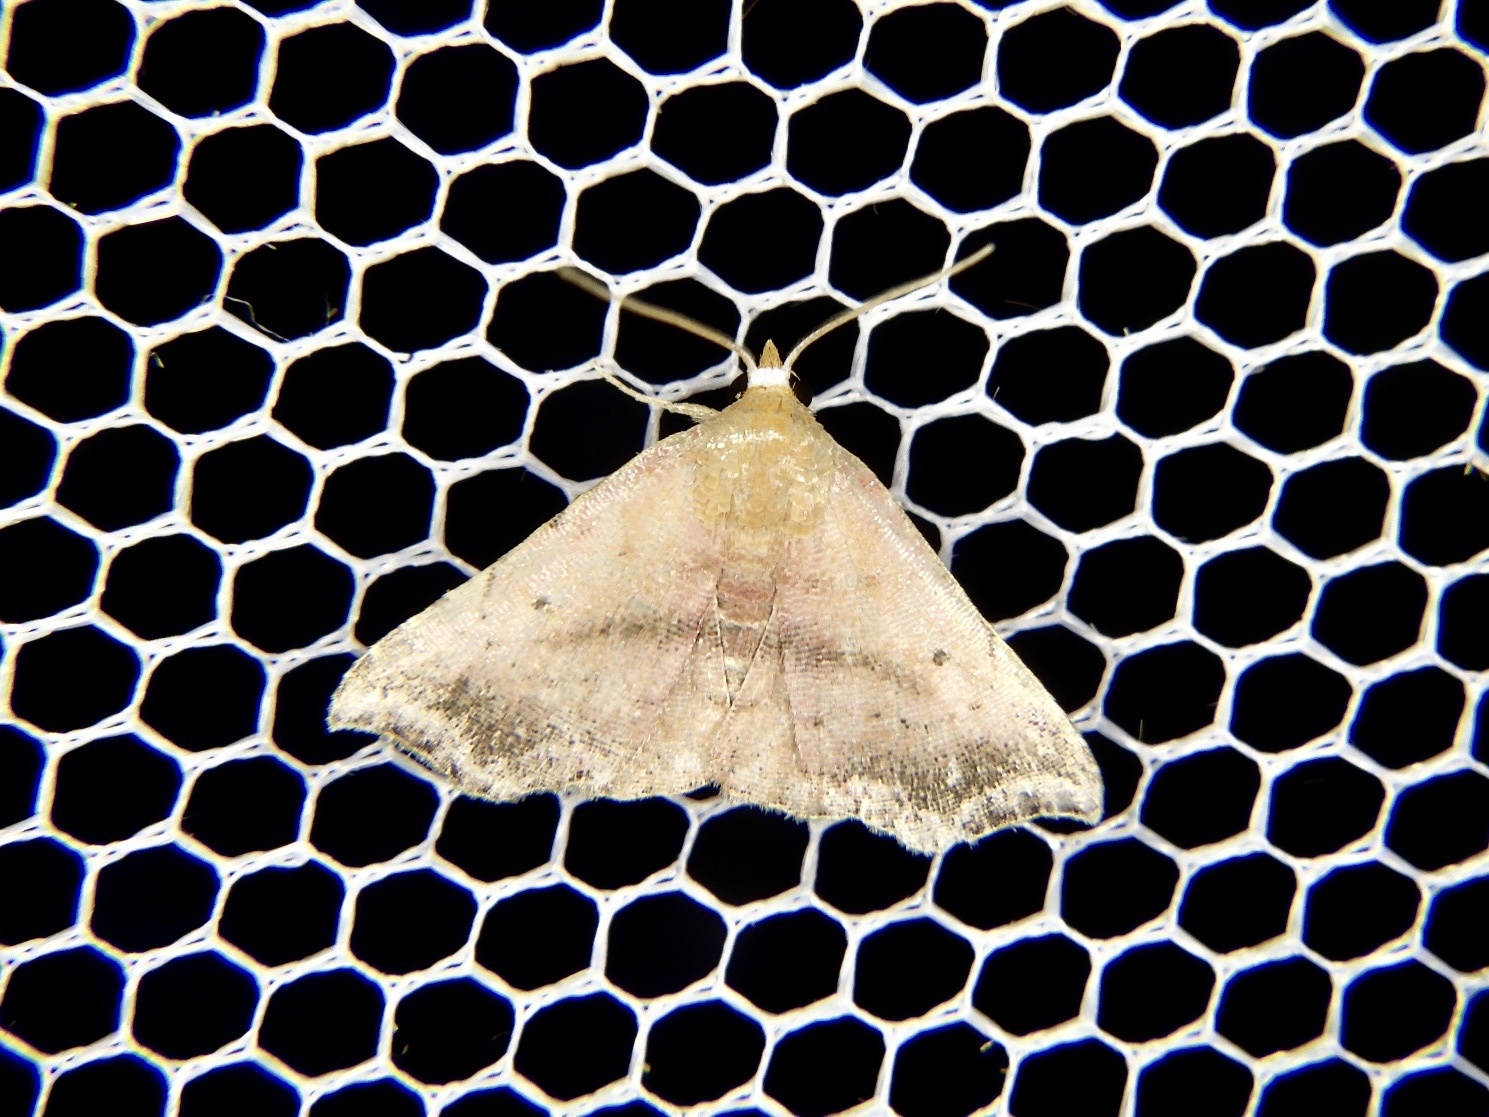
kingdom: Animalia
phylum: Arthropoda
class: Insecta
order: Lepidoptera
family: Erebidae
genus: Corgatha
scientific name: Corgatha nitens
